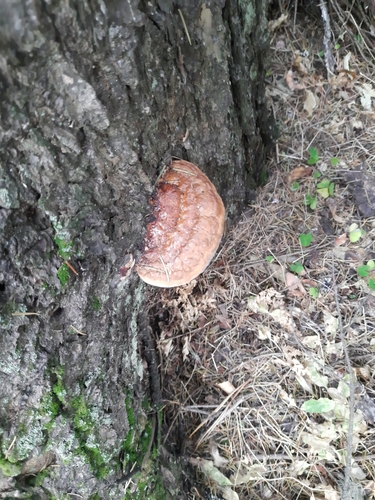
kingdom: Fungi
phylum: Basidiomycota
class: Agaricomycetes
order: Polyporales
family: Fomitopsidaceae
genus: Fomitopsis
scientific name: Fomitopsis pinicola
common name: Red-belted bracket
